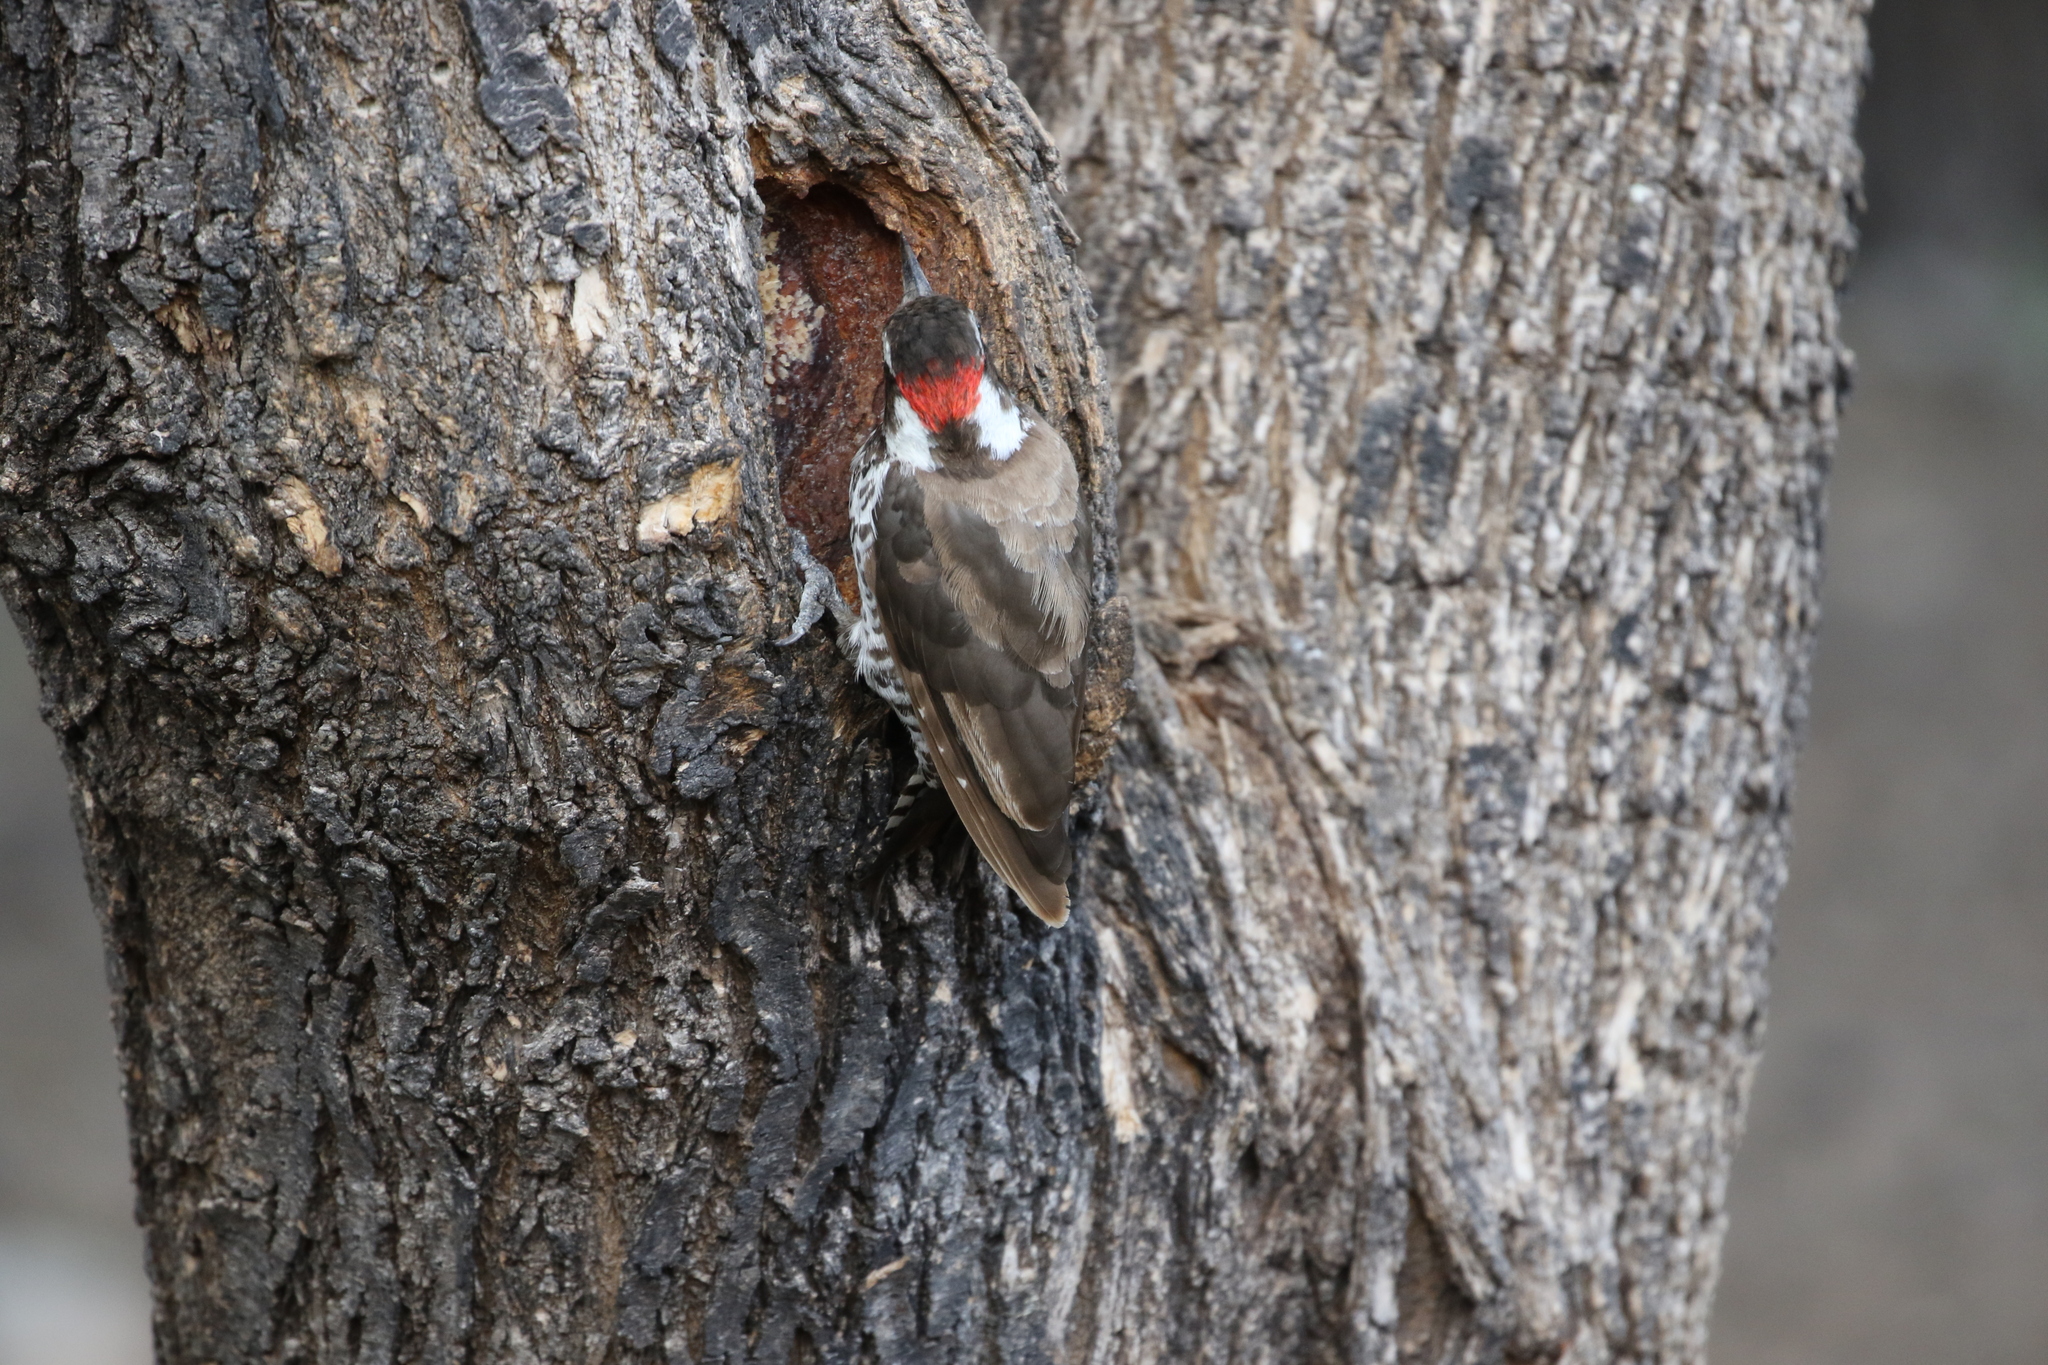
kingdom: Animalia
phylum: Chordata
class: Aves
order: Piciformes
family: Picidae
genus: Leuconotopicus
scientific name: Leuconotopicus arizonae
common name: Arizona woodpecker
